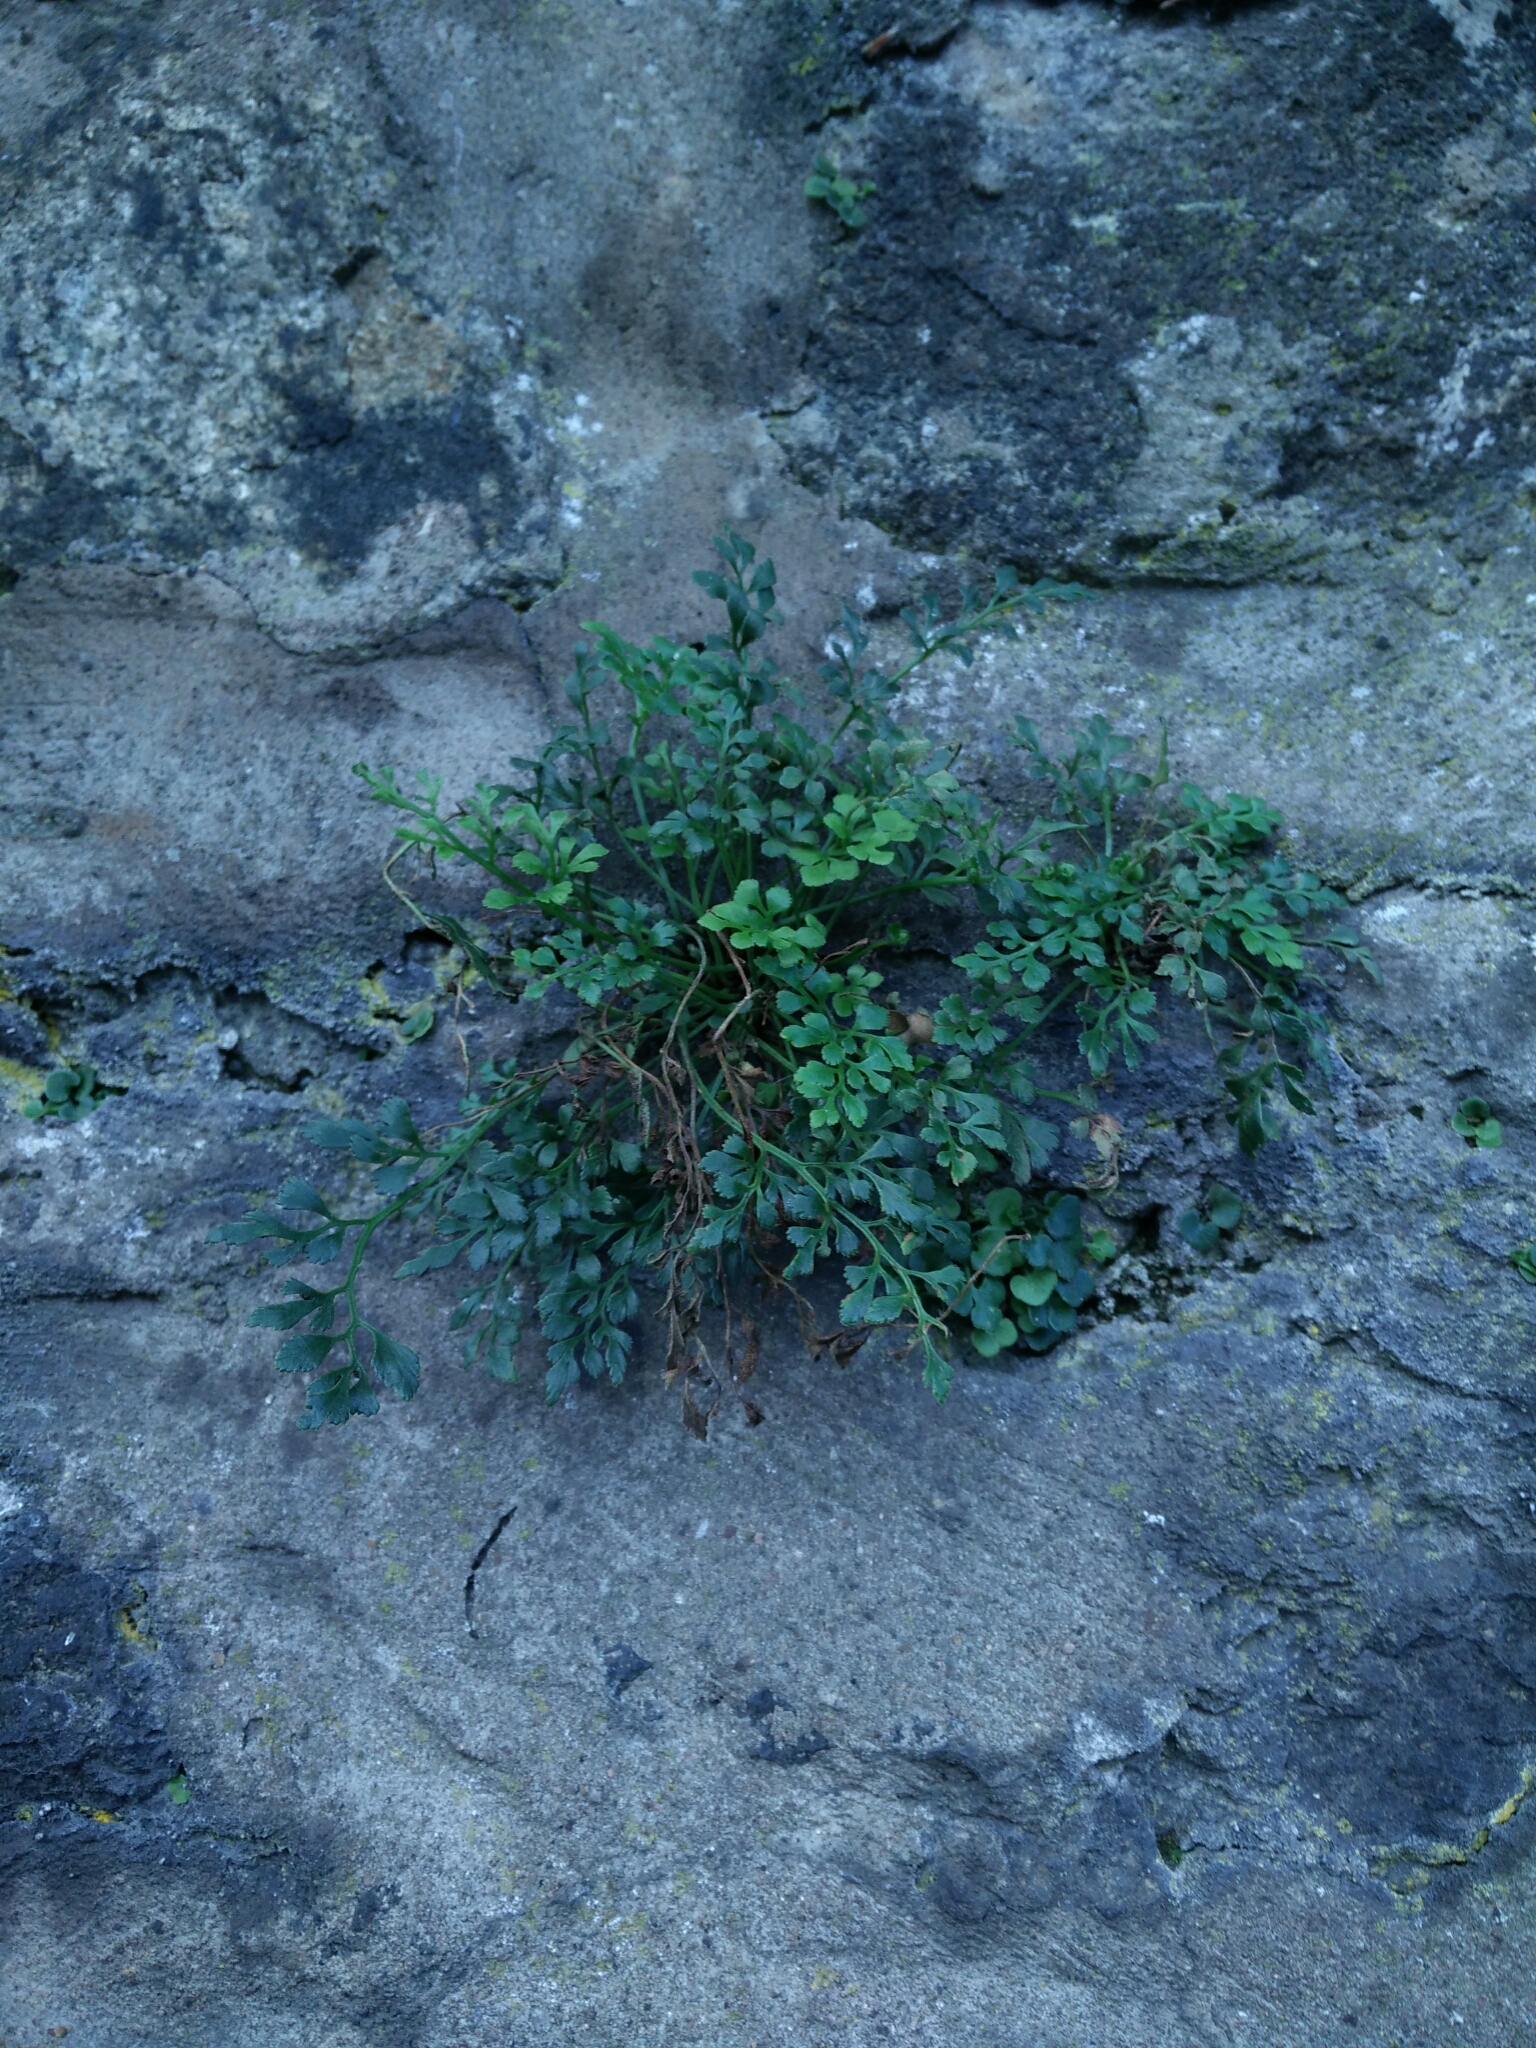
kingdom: Plantae
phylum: Tracheophyta
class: Polypodiopsida
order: Polypodiales
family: Aspleniaceae
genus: Asplenium
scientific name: Asplenium ruta-muraria
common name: Wall-rue
